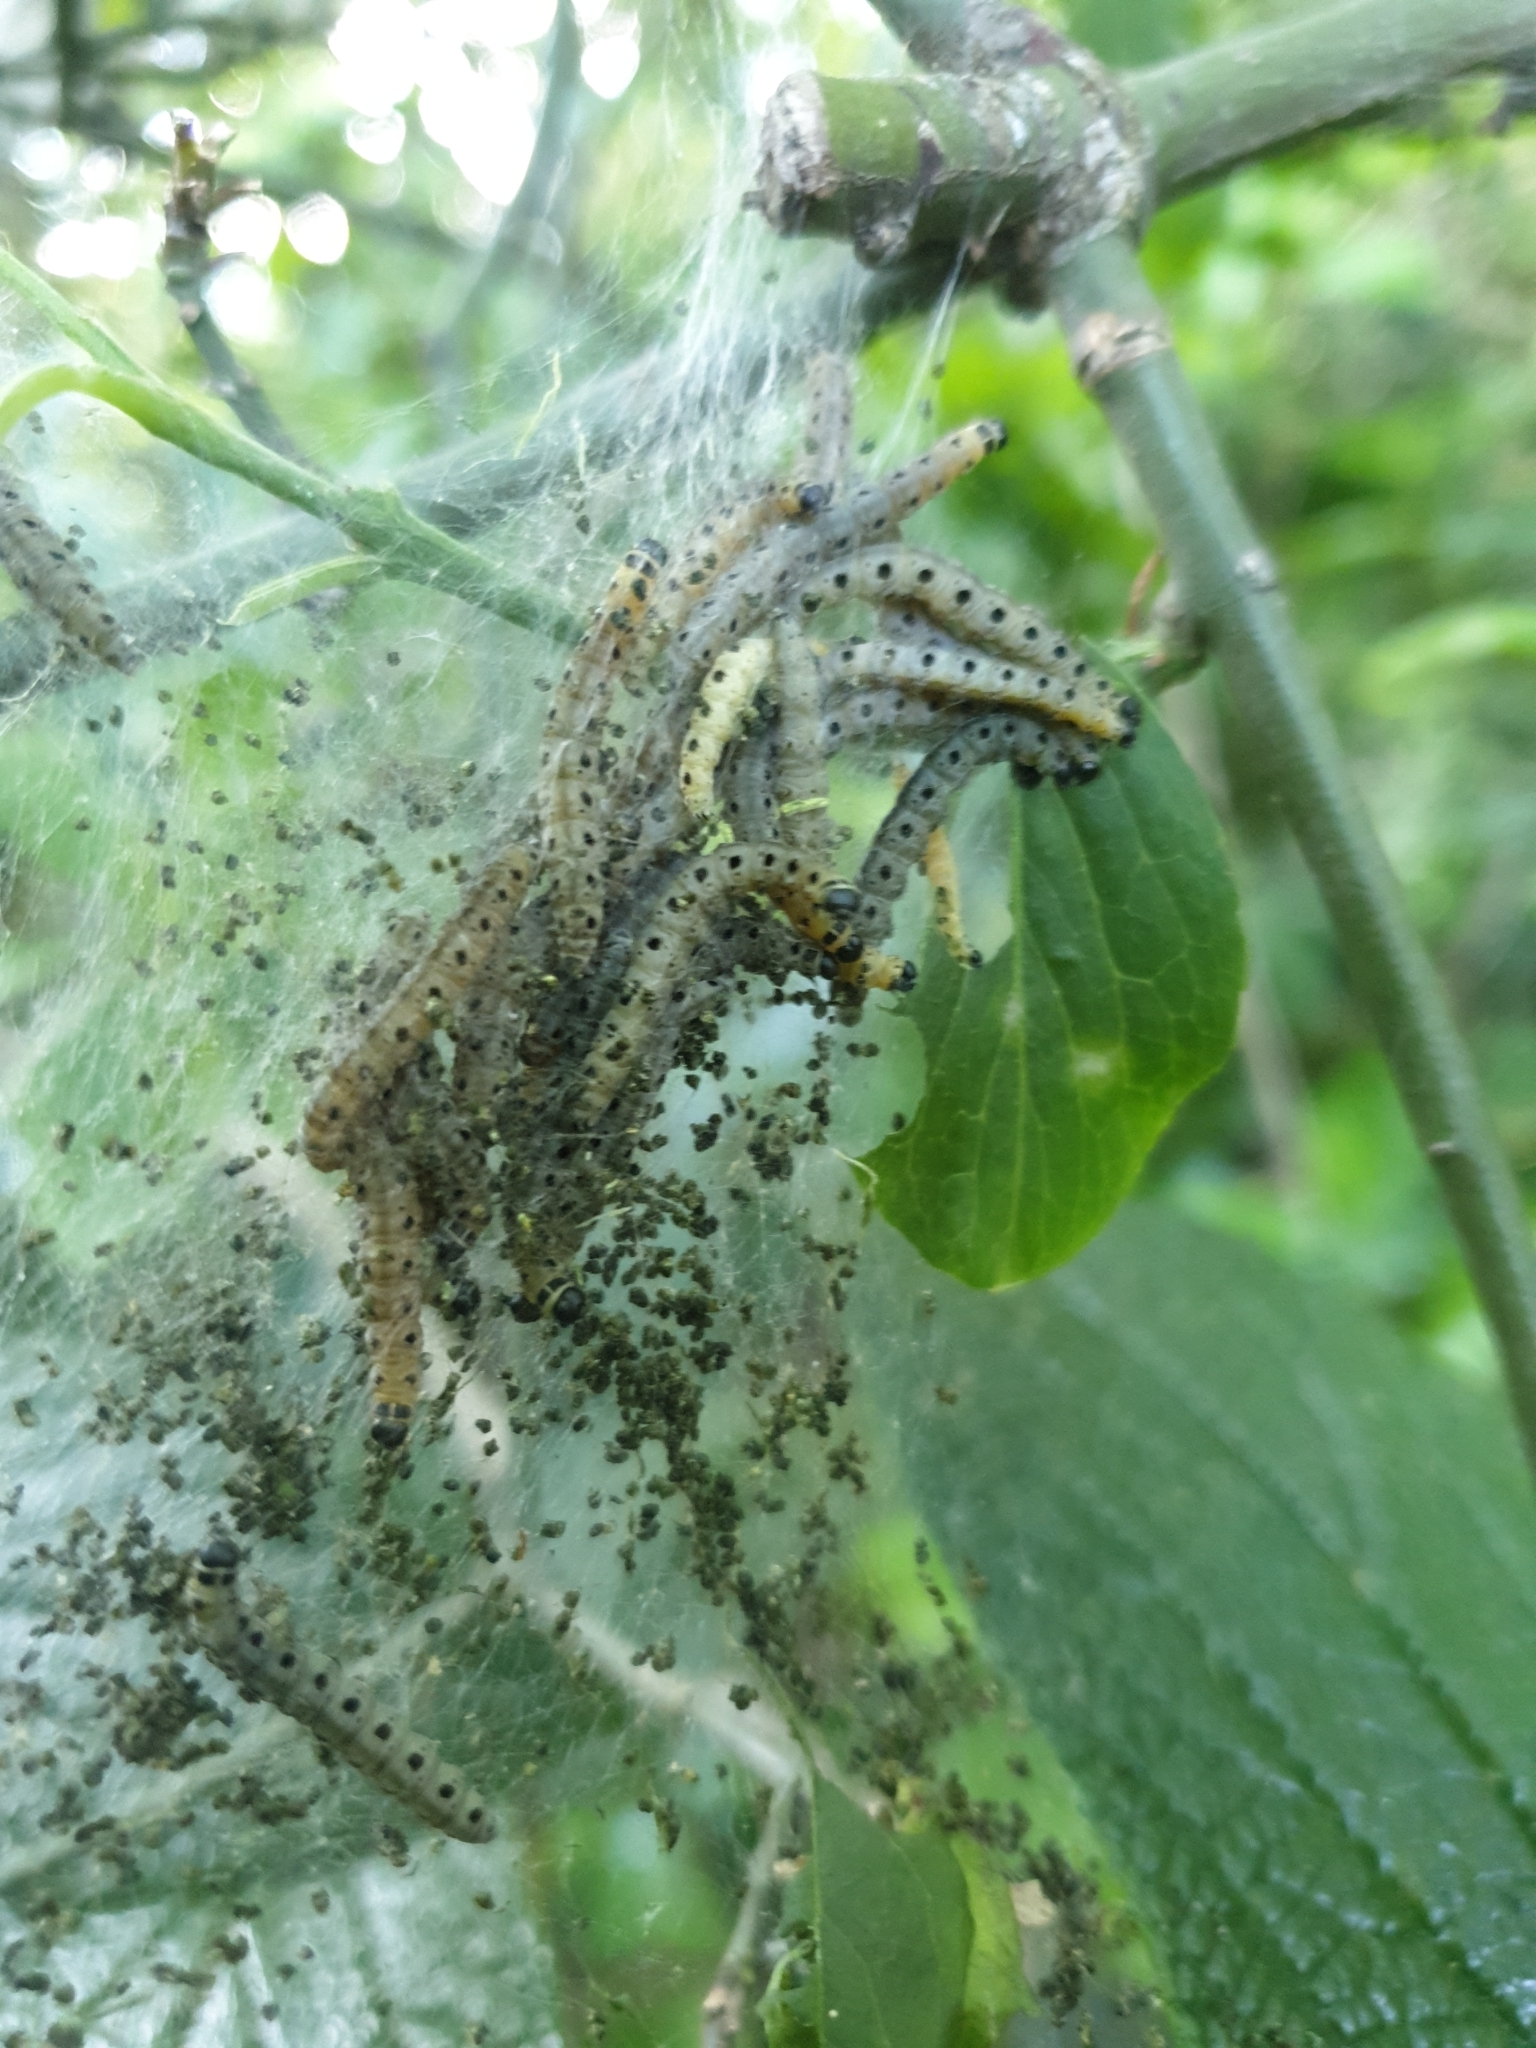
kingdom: Animalia
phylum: Arthropoda
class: Insecta
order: Lepidoptera
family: Yponomeutidae
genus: Yponomeuta
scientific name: Yponomeuta cagnagellus
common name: Spindle ermine
